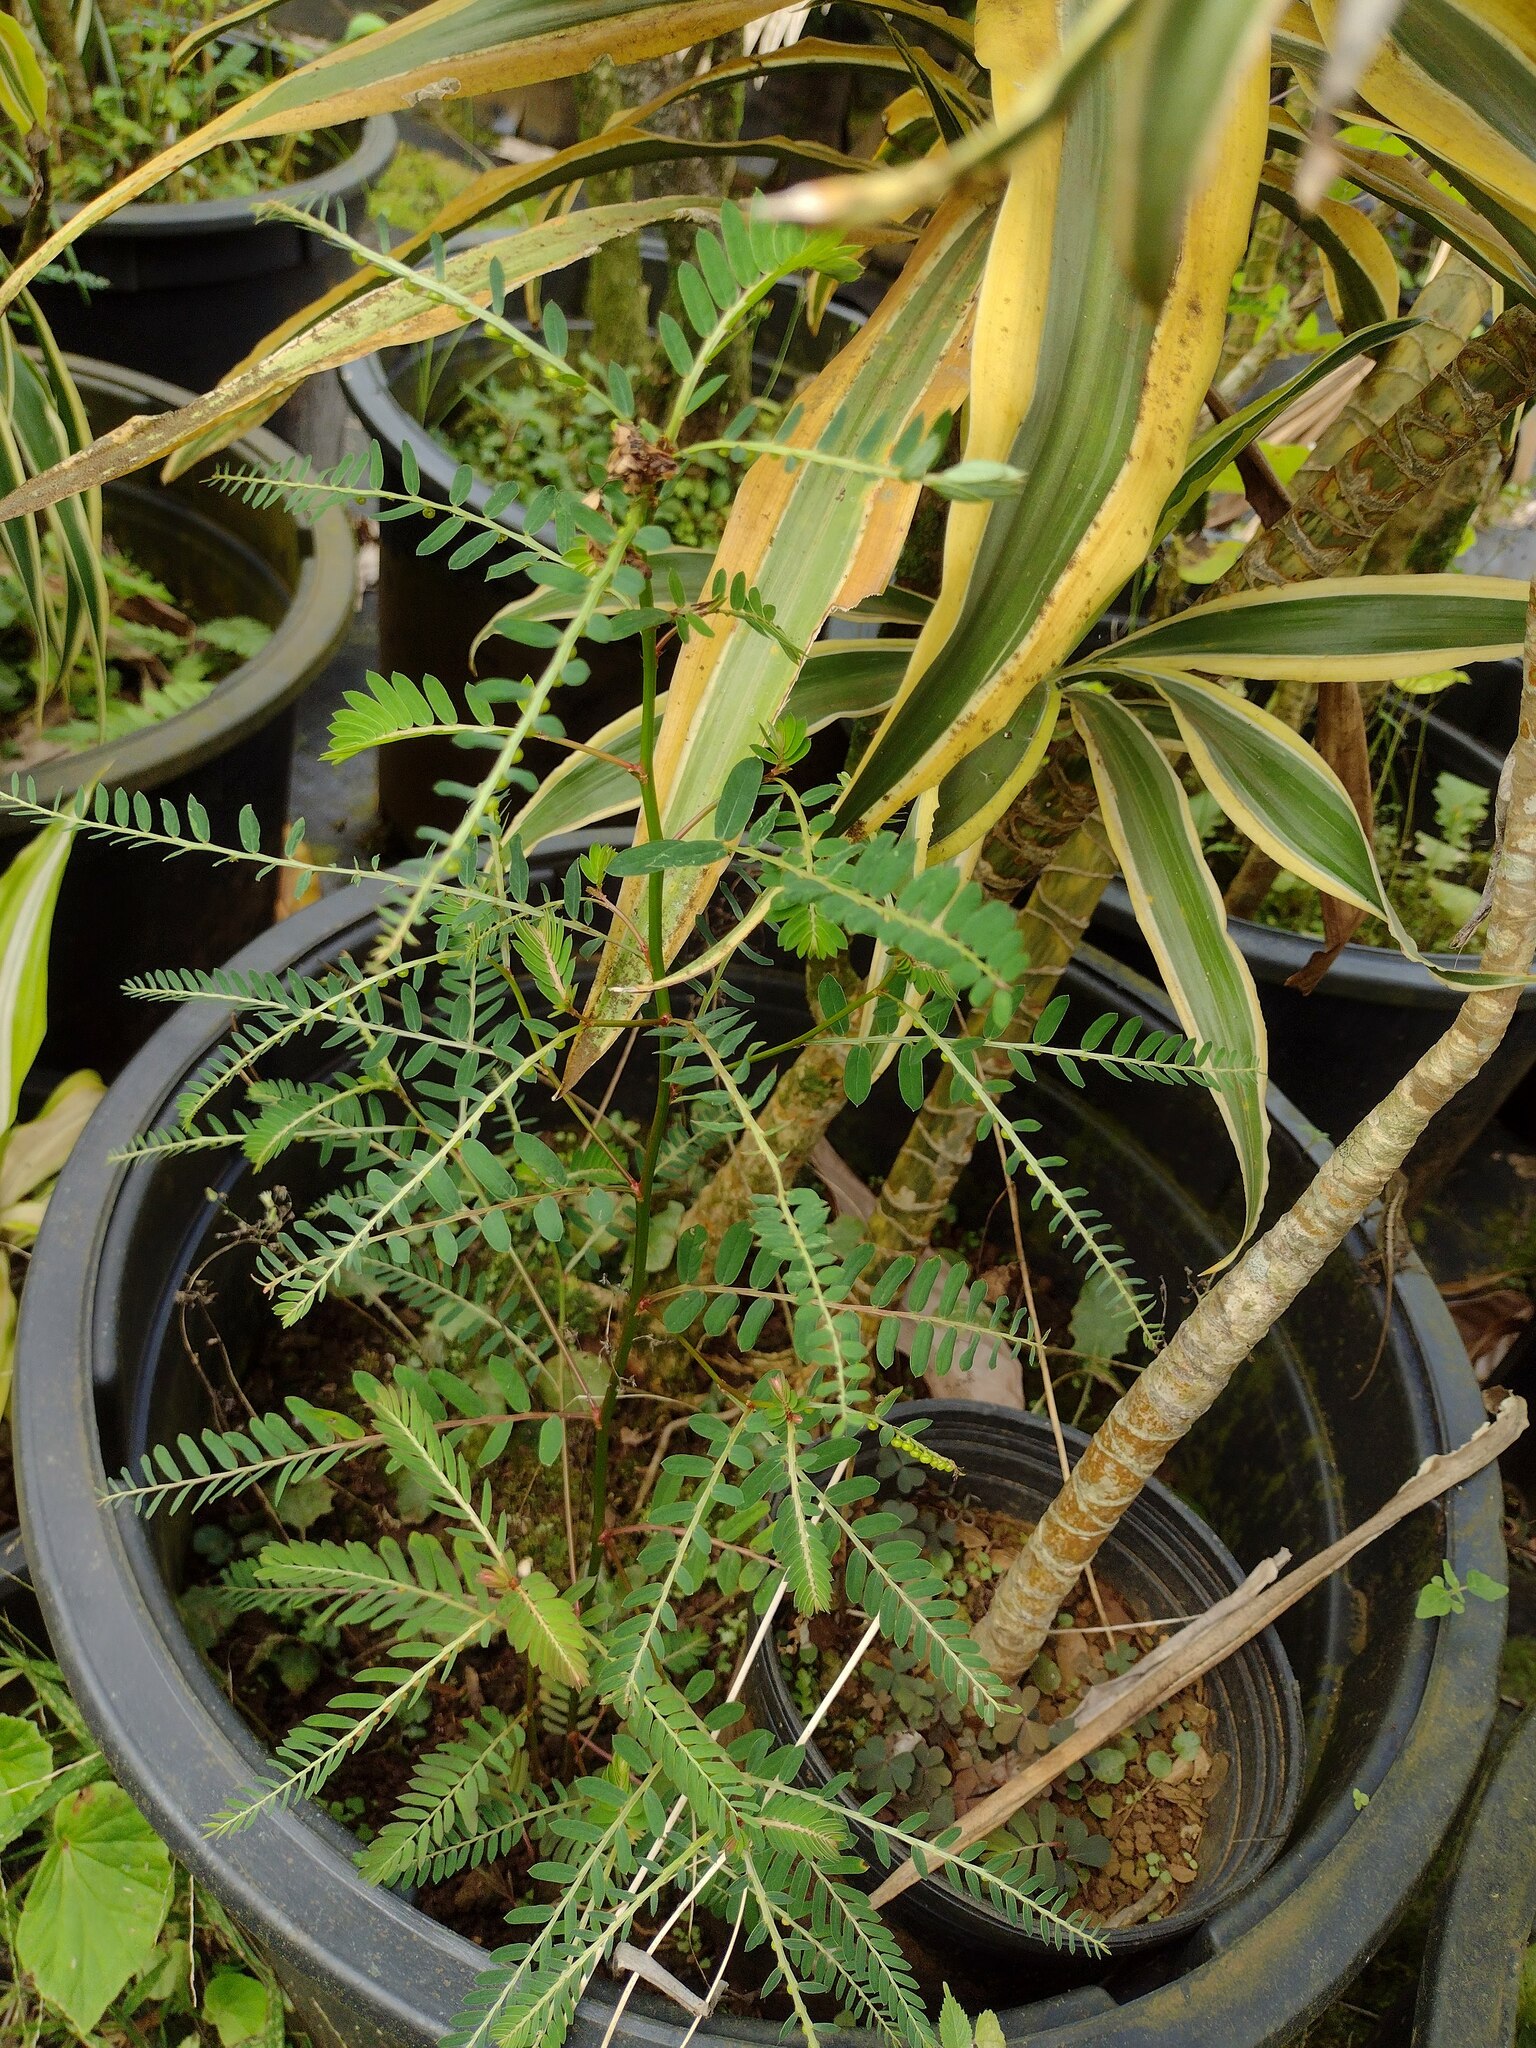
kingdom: Plantae
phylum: Tracheophyta
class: Magnoliopsida
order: Malpighiales
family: Phyllanthaceae
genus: Phyllanthus
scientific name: Phyllanthus debilis
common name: Niruri
